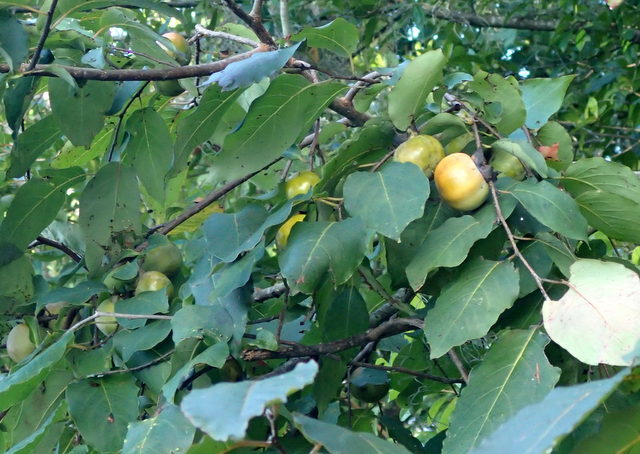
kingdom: Plantae
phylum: Tracheophyta
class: Magnoliopsida
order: Ericales
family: Ebenaceae
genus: Diospyros
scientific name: Diospyros virginiana
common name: Persimmon
